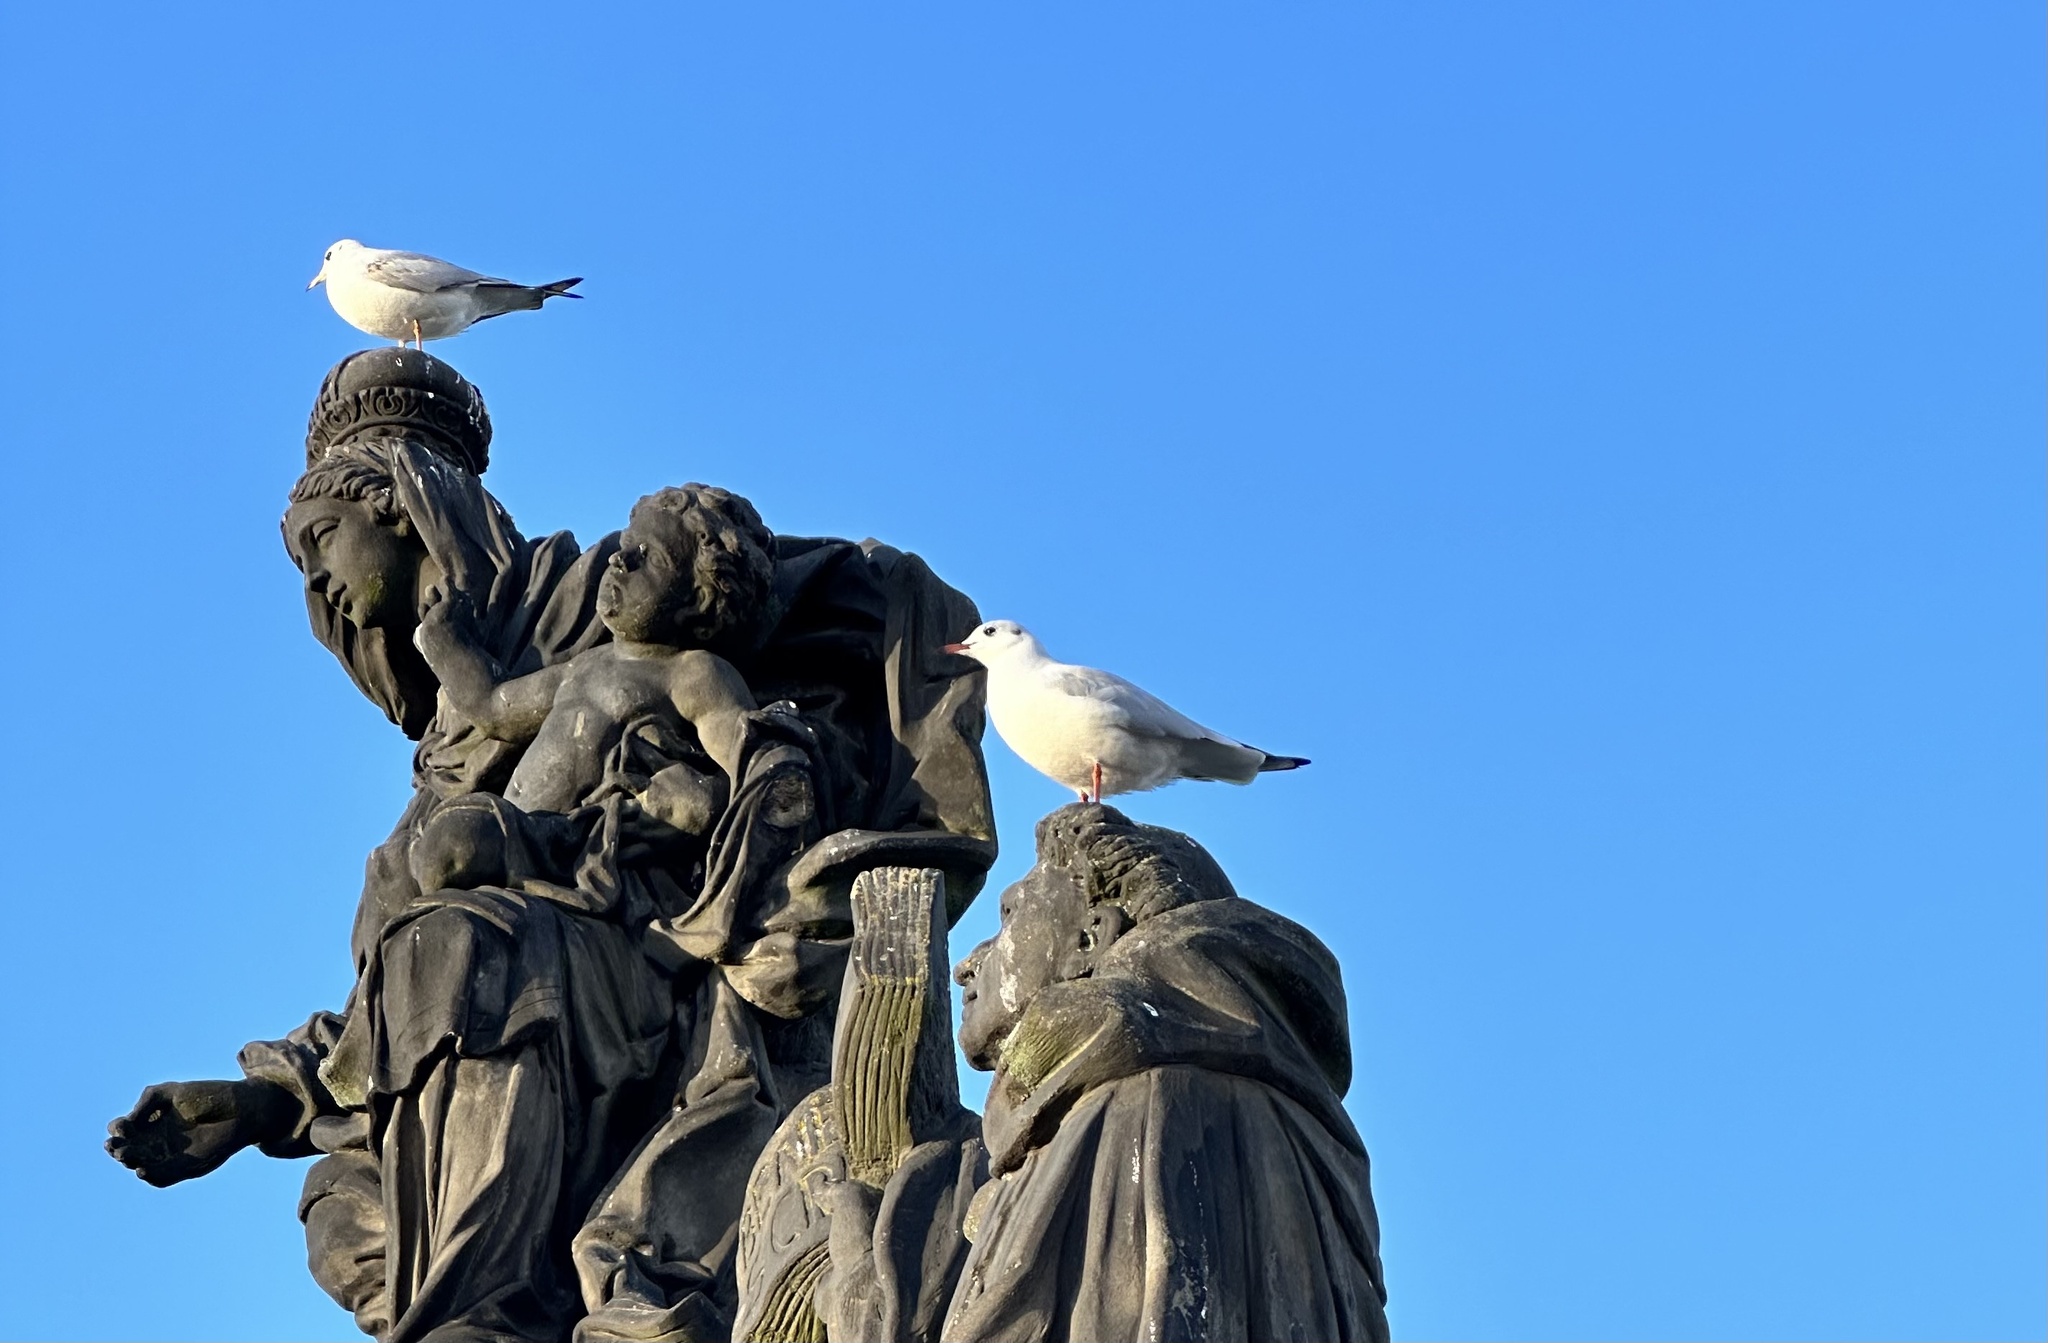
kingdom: Animalia
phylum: Chordata
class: Aves
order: Charadriiformes
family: Laridae
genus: Chroicocephalus
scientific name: Chroicocephalus ridibundus
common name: Black-headed gull
